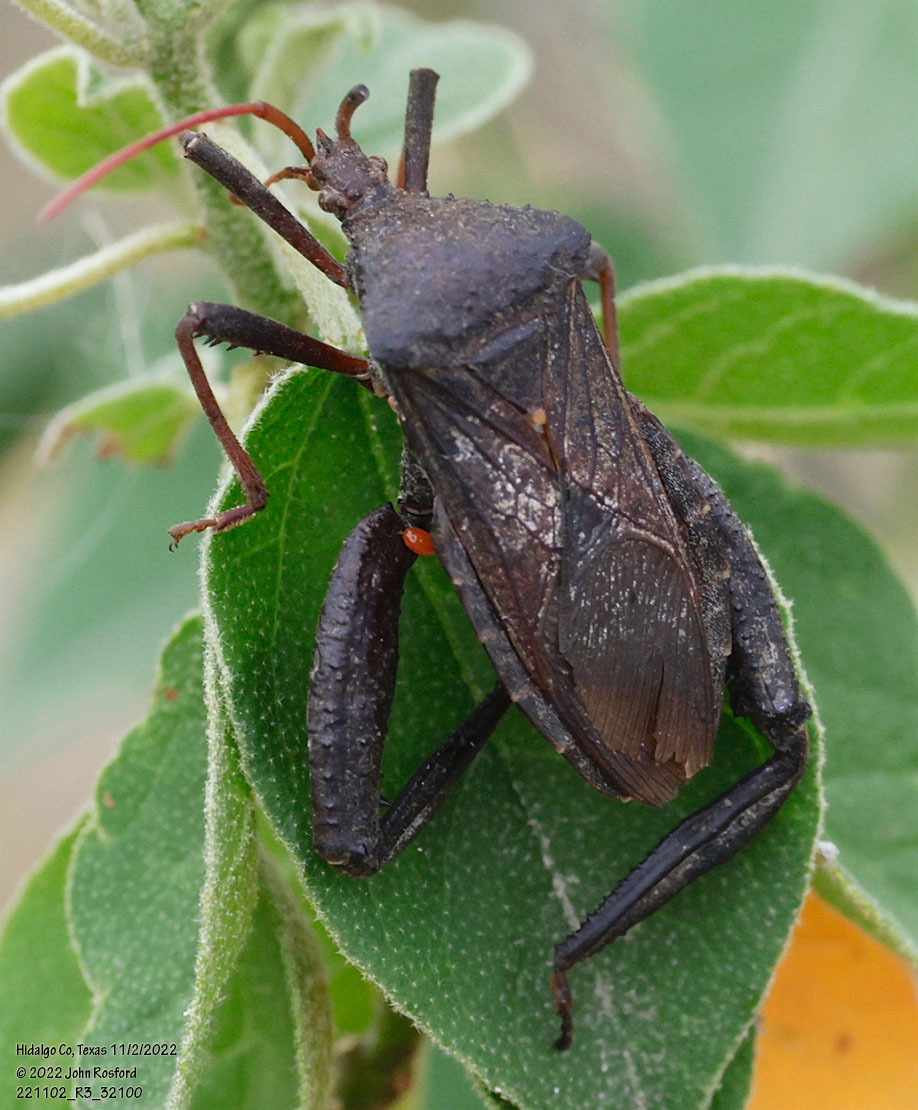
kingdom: Animalia
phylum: Arthropoda
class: Insecta
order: Hemiptera
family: Coreidae
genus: Acanthocephala
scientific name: Acanthocephala femorata
